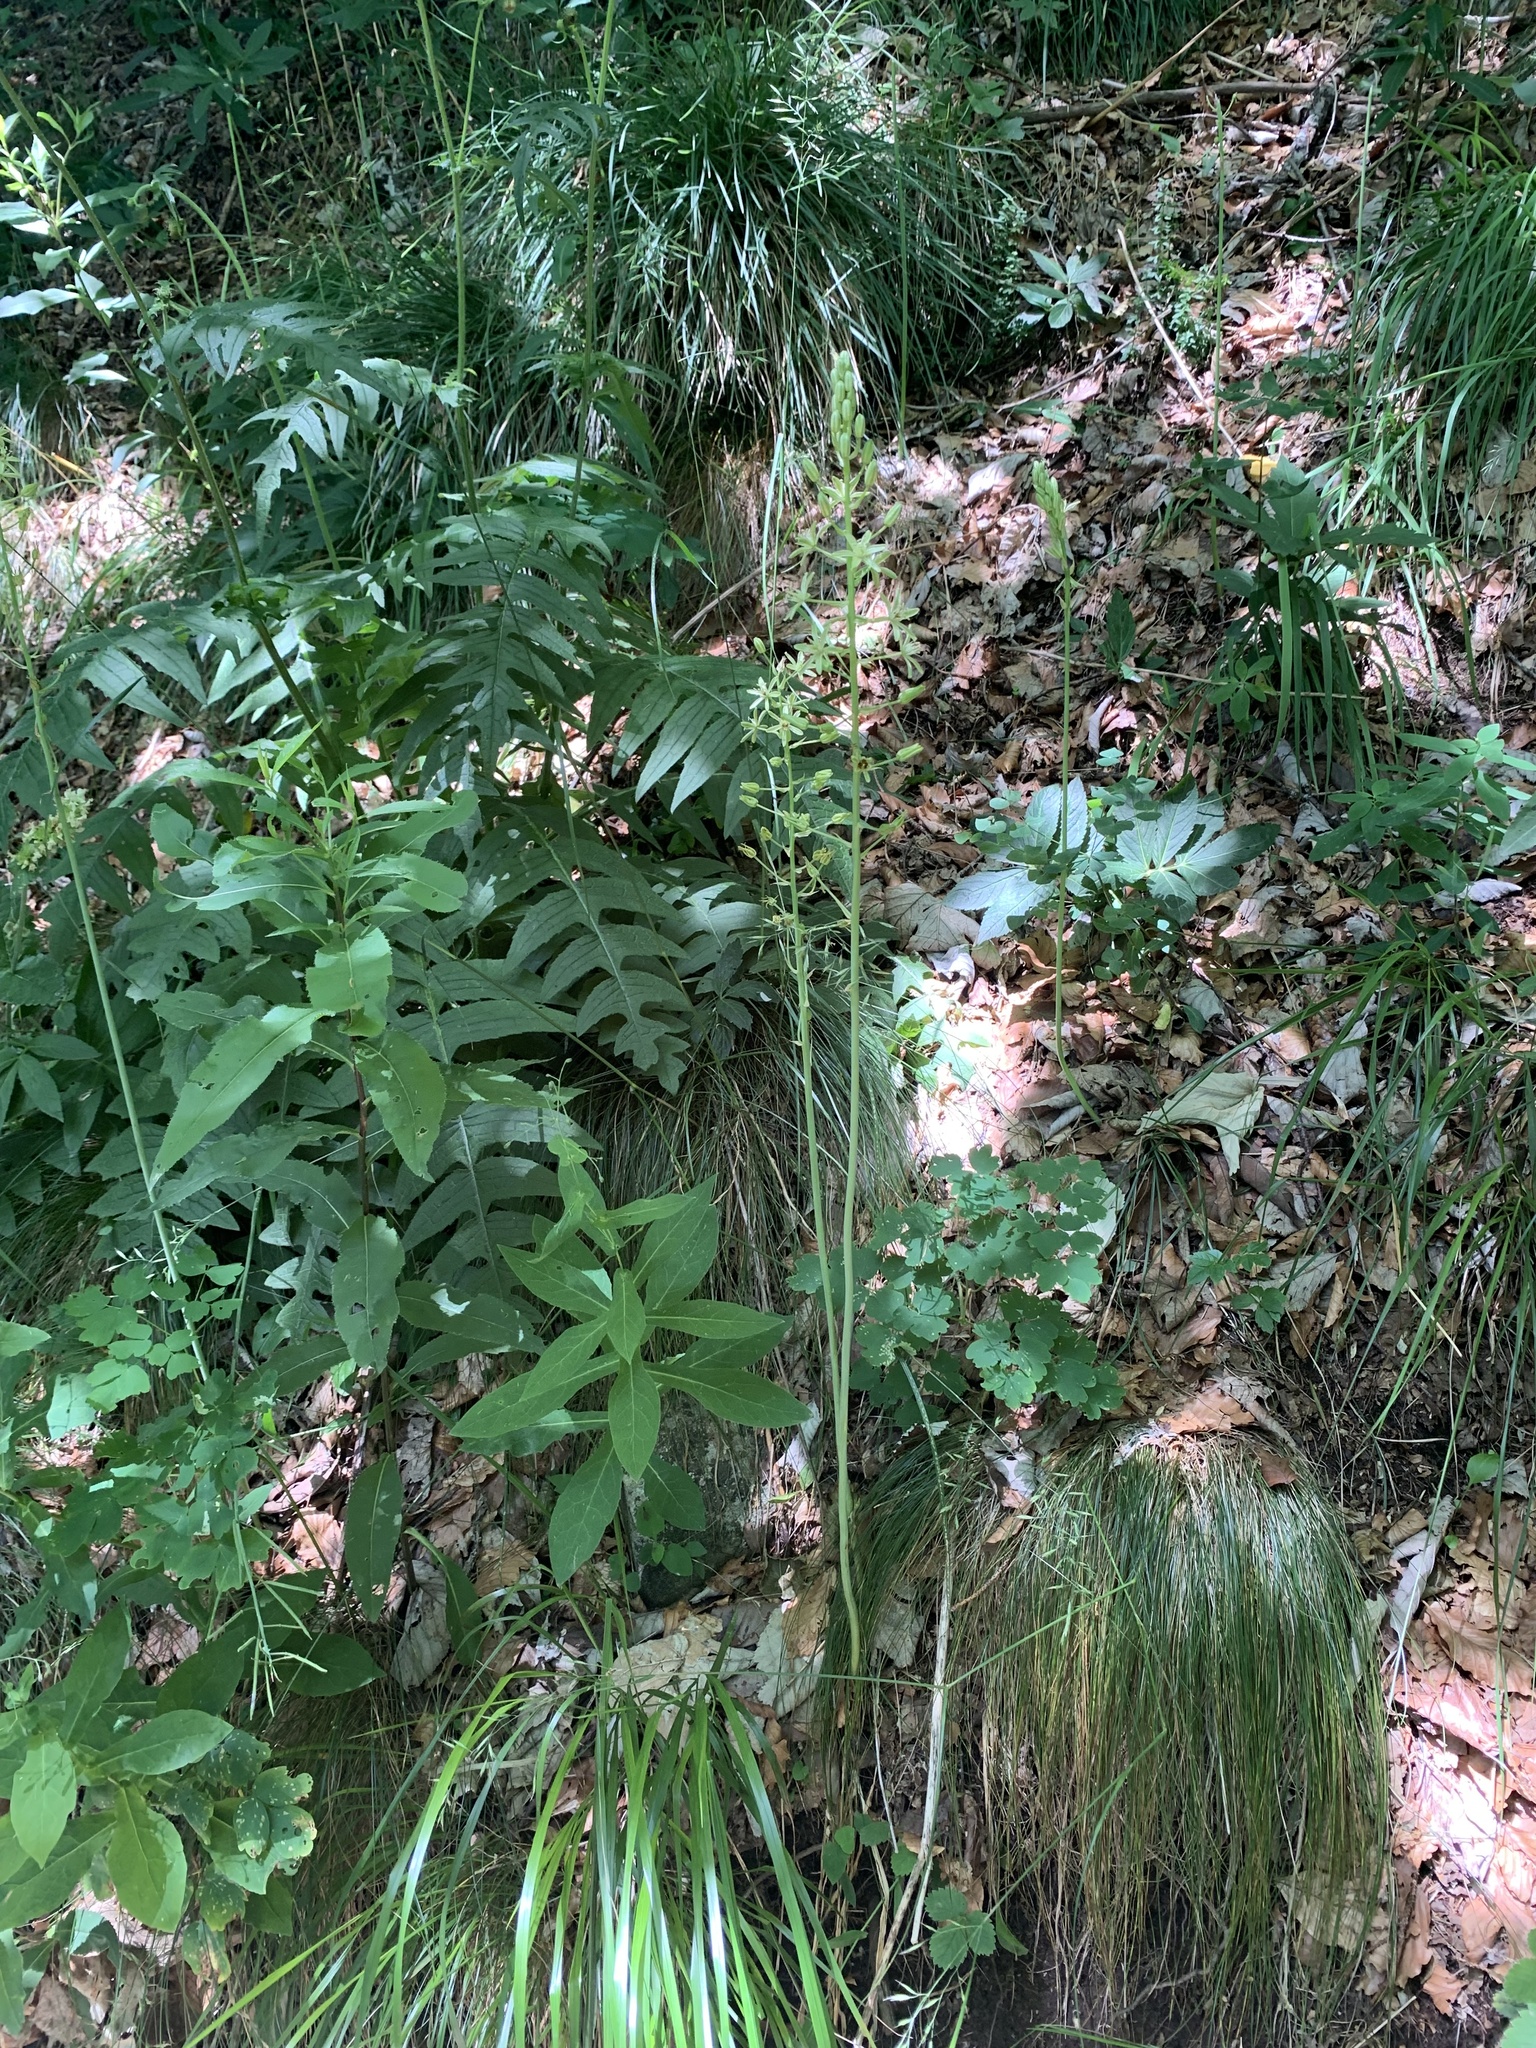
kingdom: Plantae
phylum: Tracheophyta
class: Liliopsida
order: Asparagales
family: Asparagaceae
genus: Ornithogalum
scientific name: Ornithogalum pyrenaicum
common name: Spiked star-of-bethlehem
